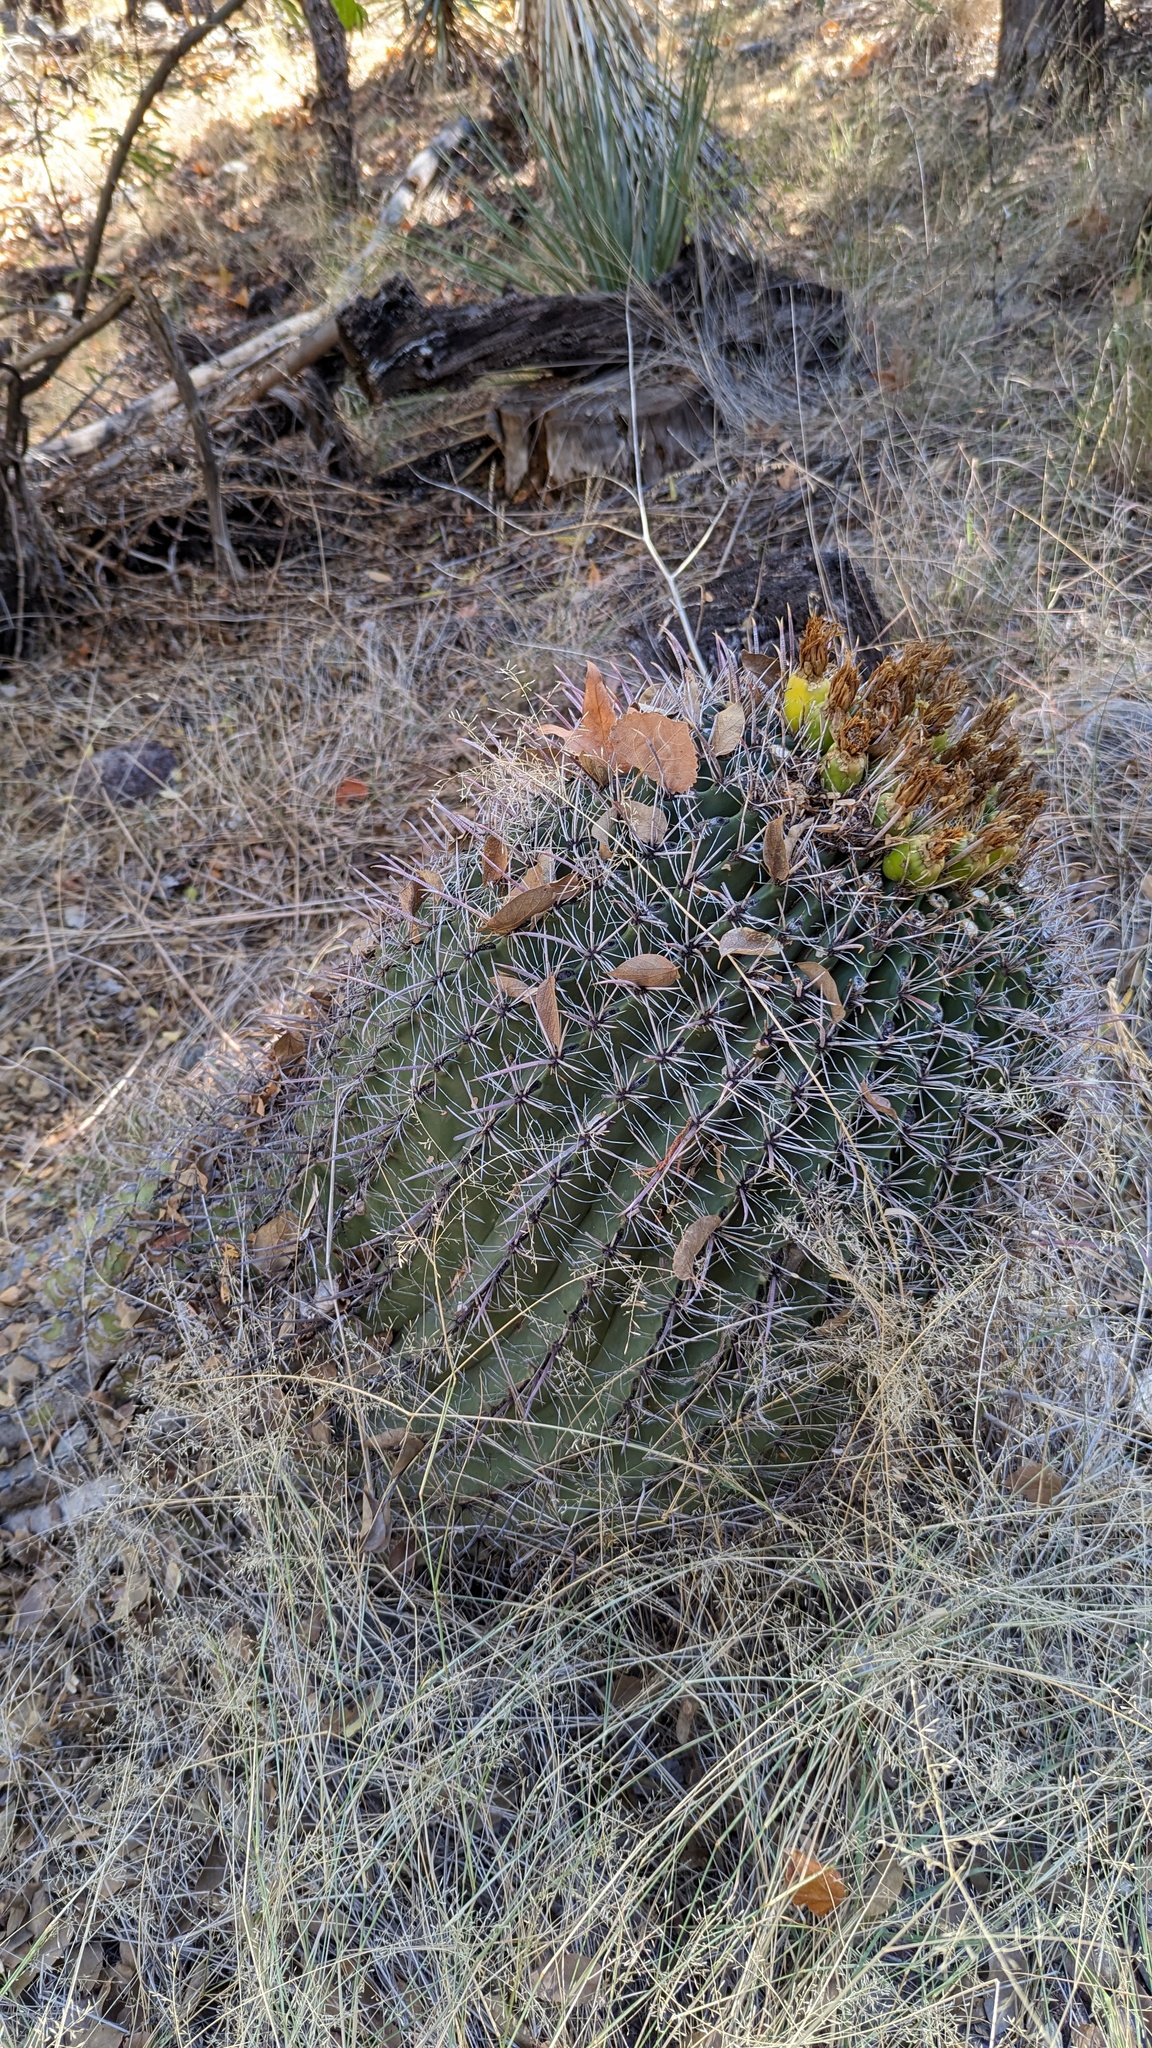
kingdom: Plantae
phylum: Tracheophyta
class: Magnoliopsida
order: Caryophyllales
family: Cactaceae
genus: Ferocactus
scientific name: Ferocactus cylindraceus
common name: California barrel cactus
